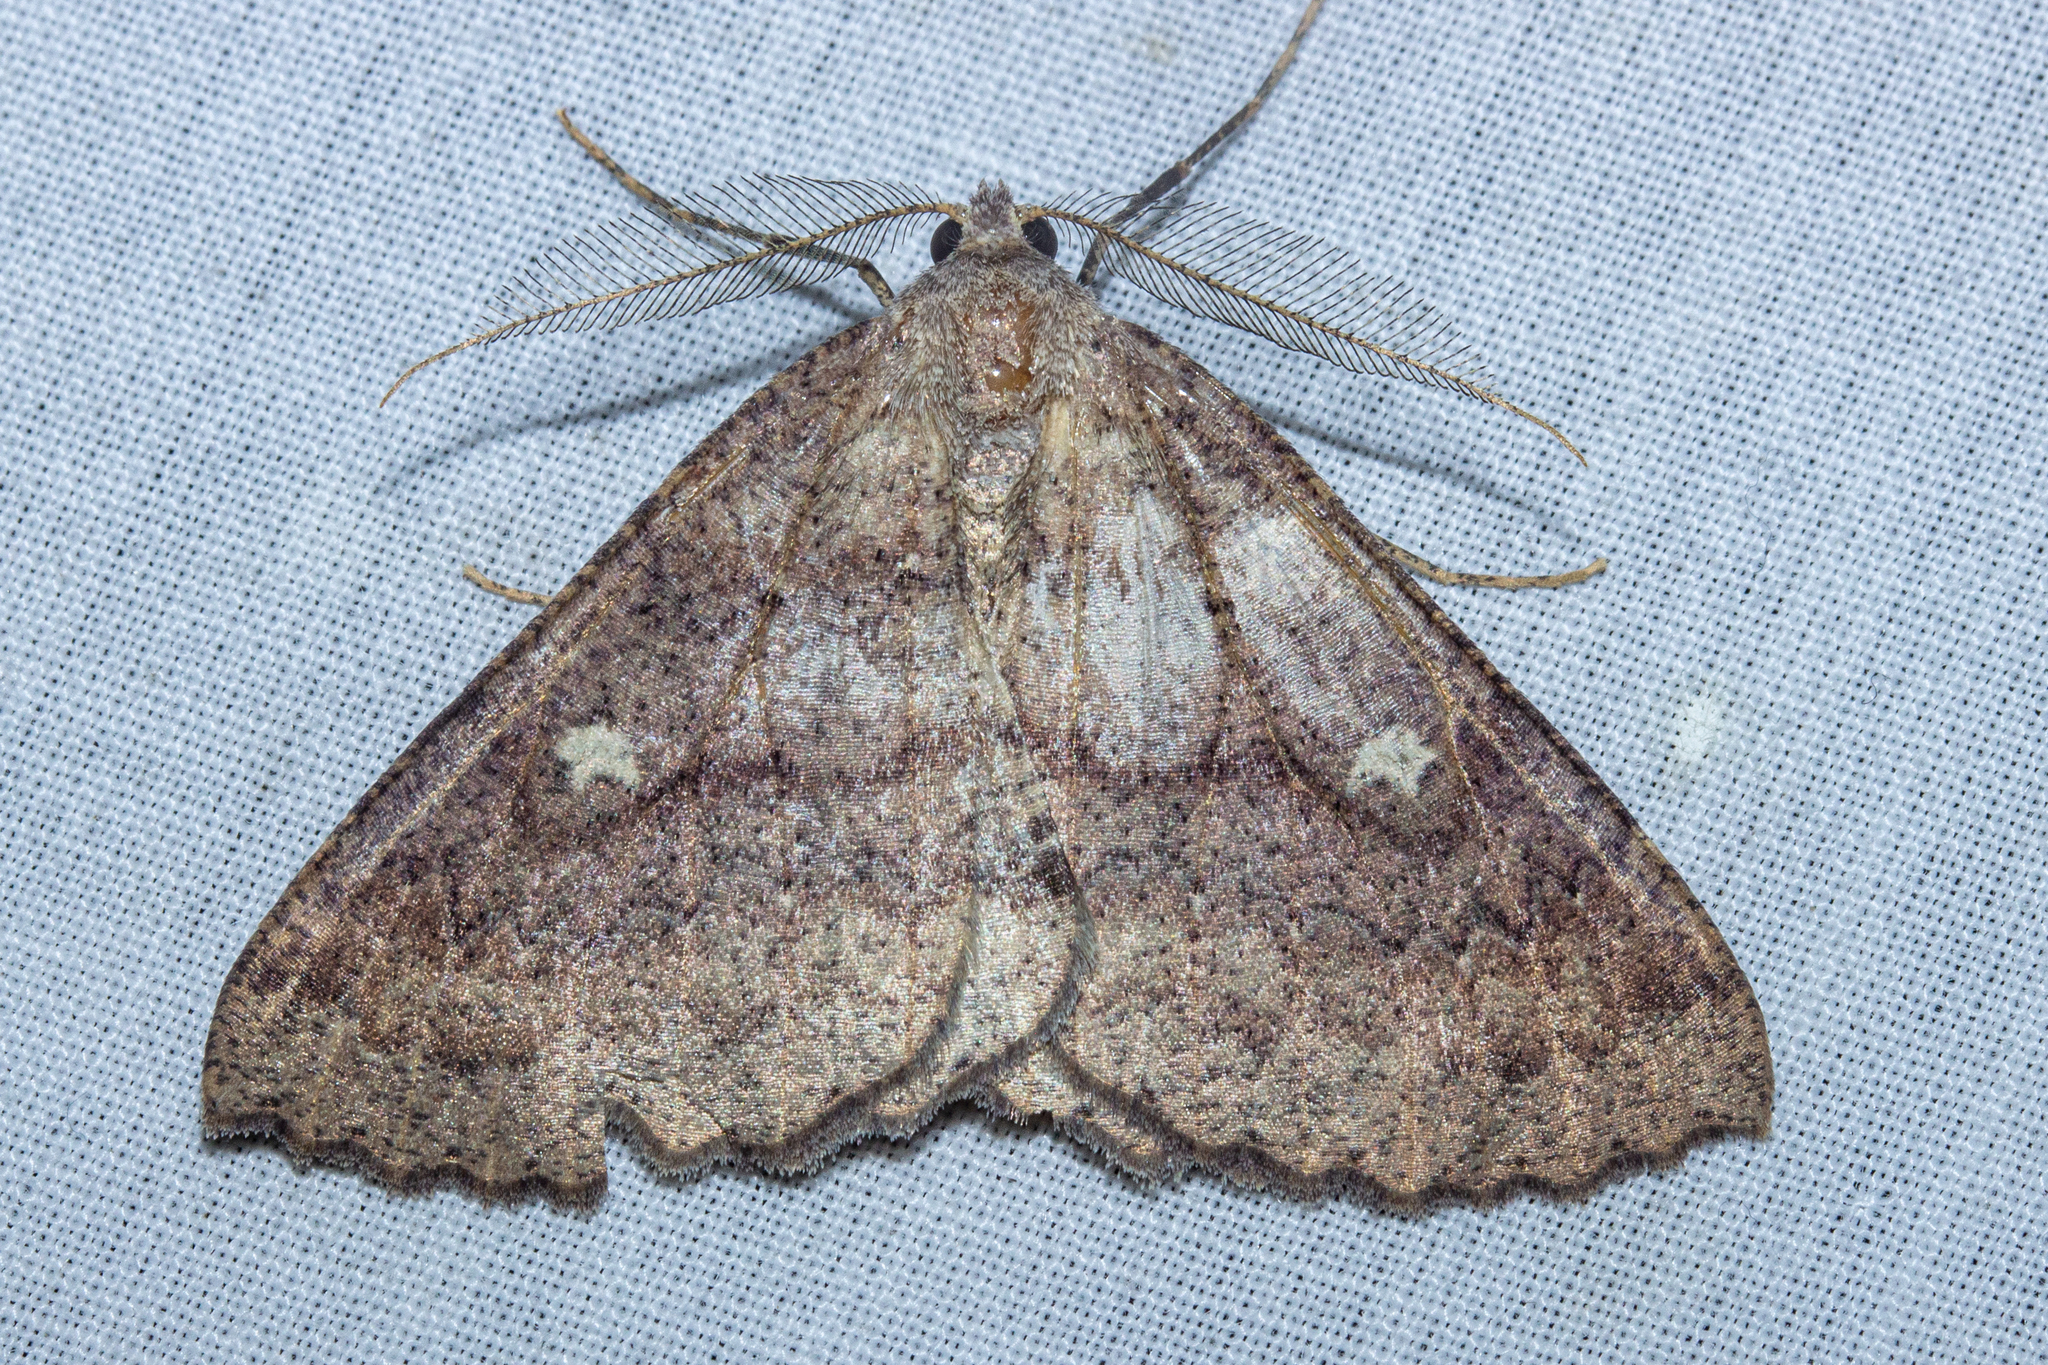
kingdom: Animalia
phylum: Arthropoda
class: Insecta
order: Lepidoptera
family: Geometridae
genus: Cleora
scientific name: Cleora scriptaria
